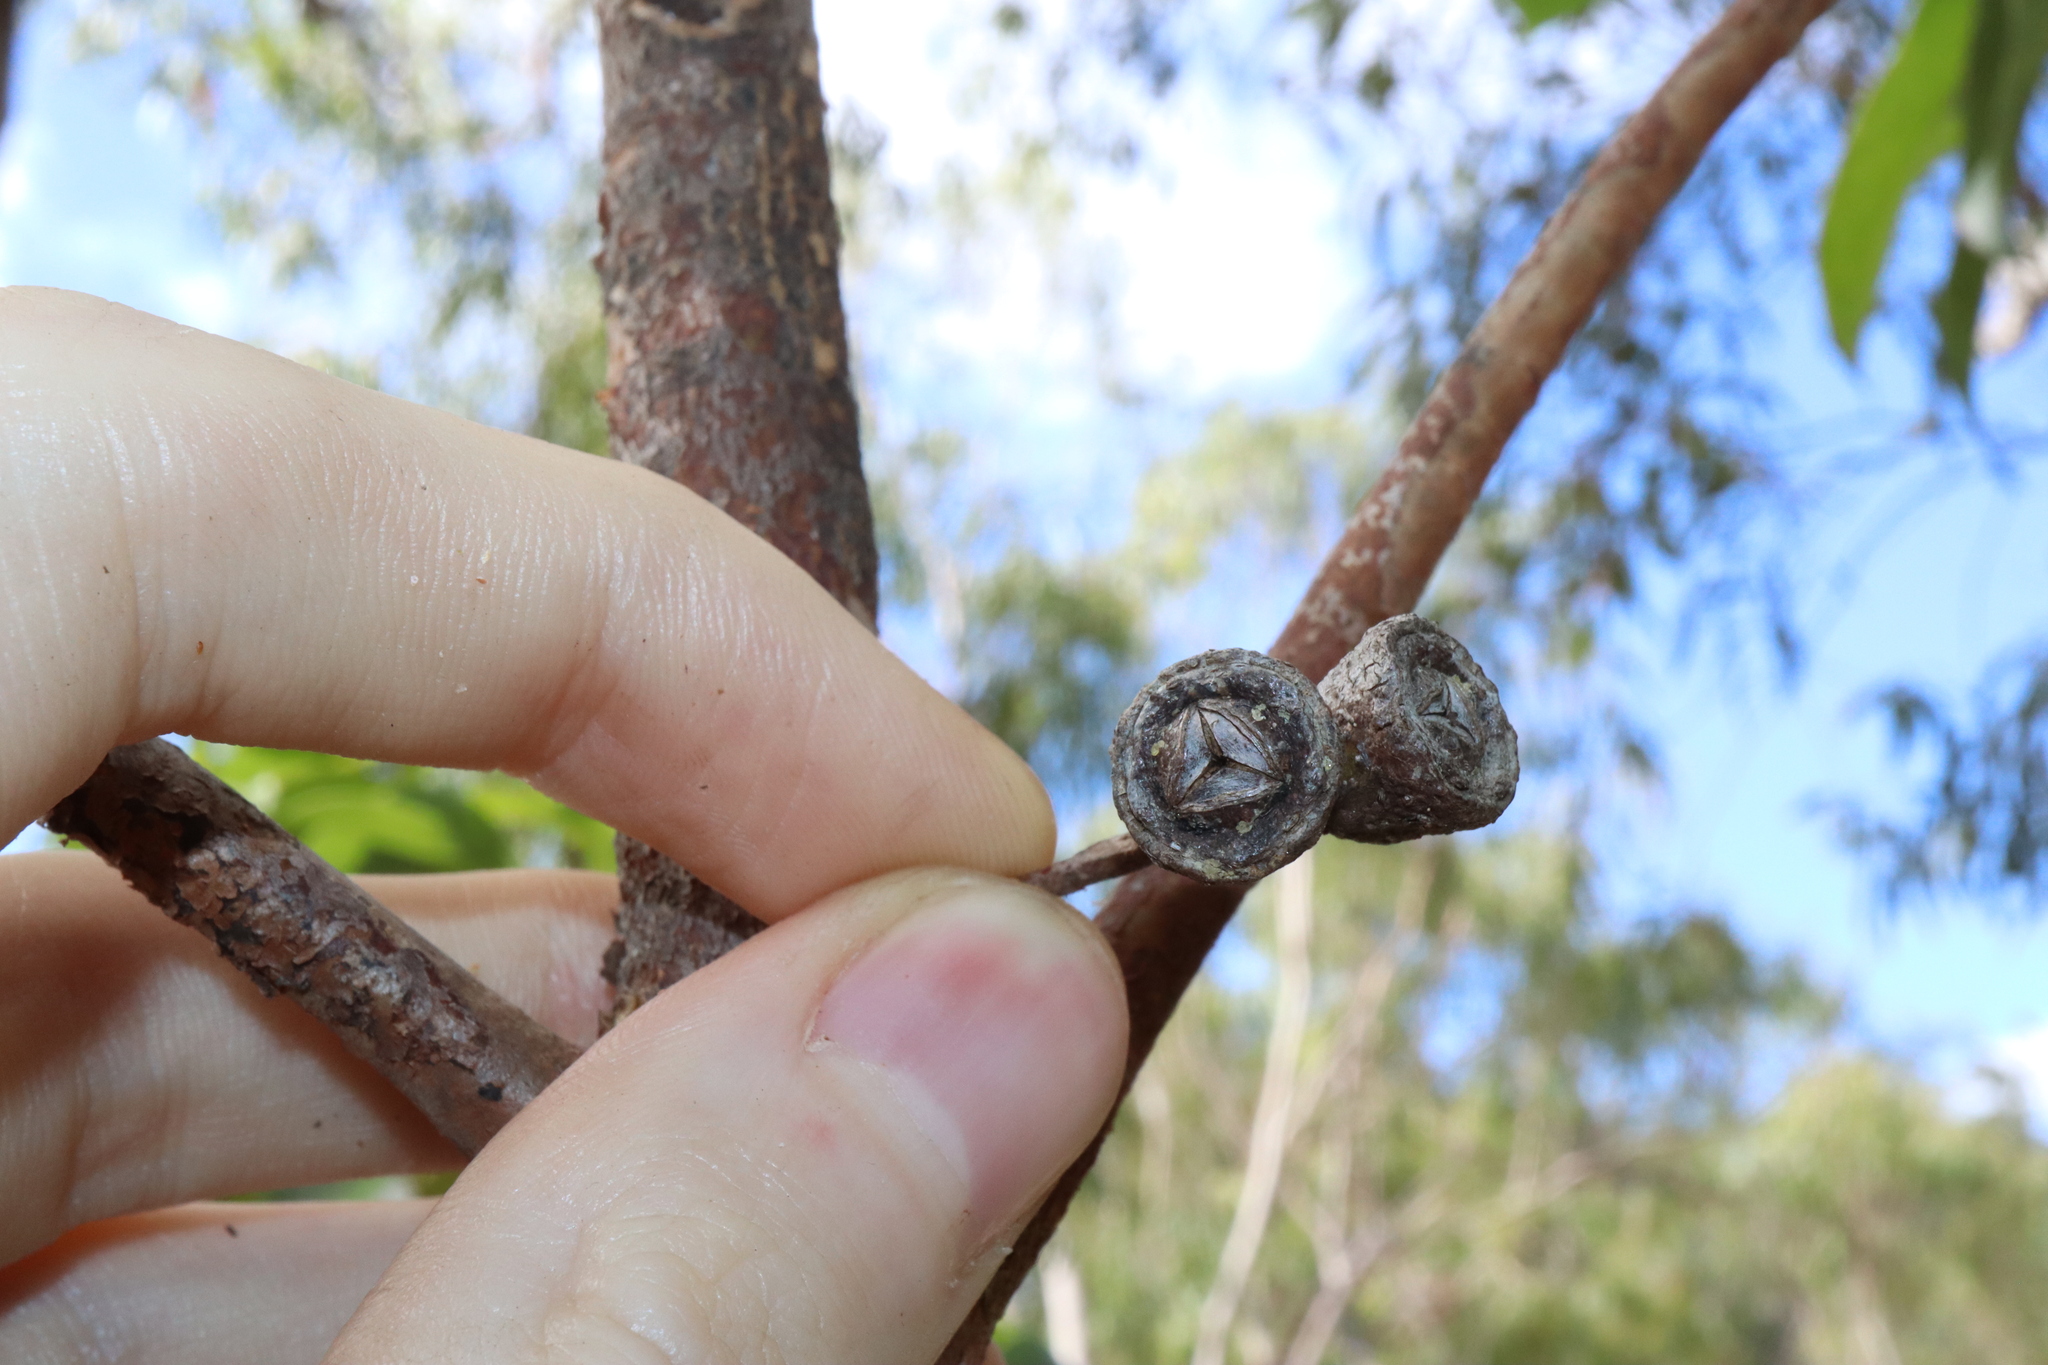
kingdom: Plantae
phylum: Tracheophyta
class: Magnoliopsida
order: Myrtales
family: Myrtaceae
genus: Lophostemon
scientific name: Lophostemon confertus
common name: Brisbane box
